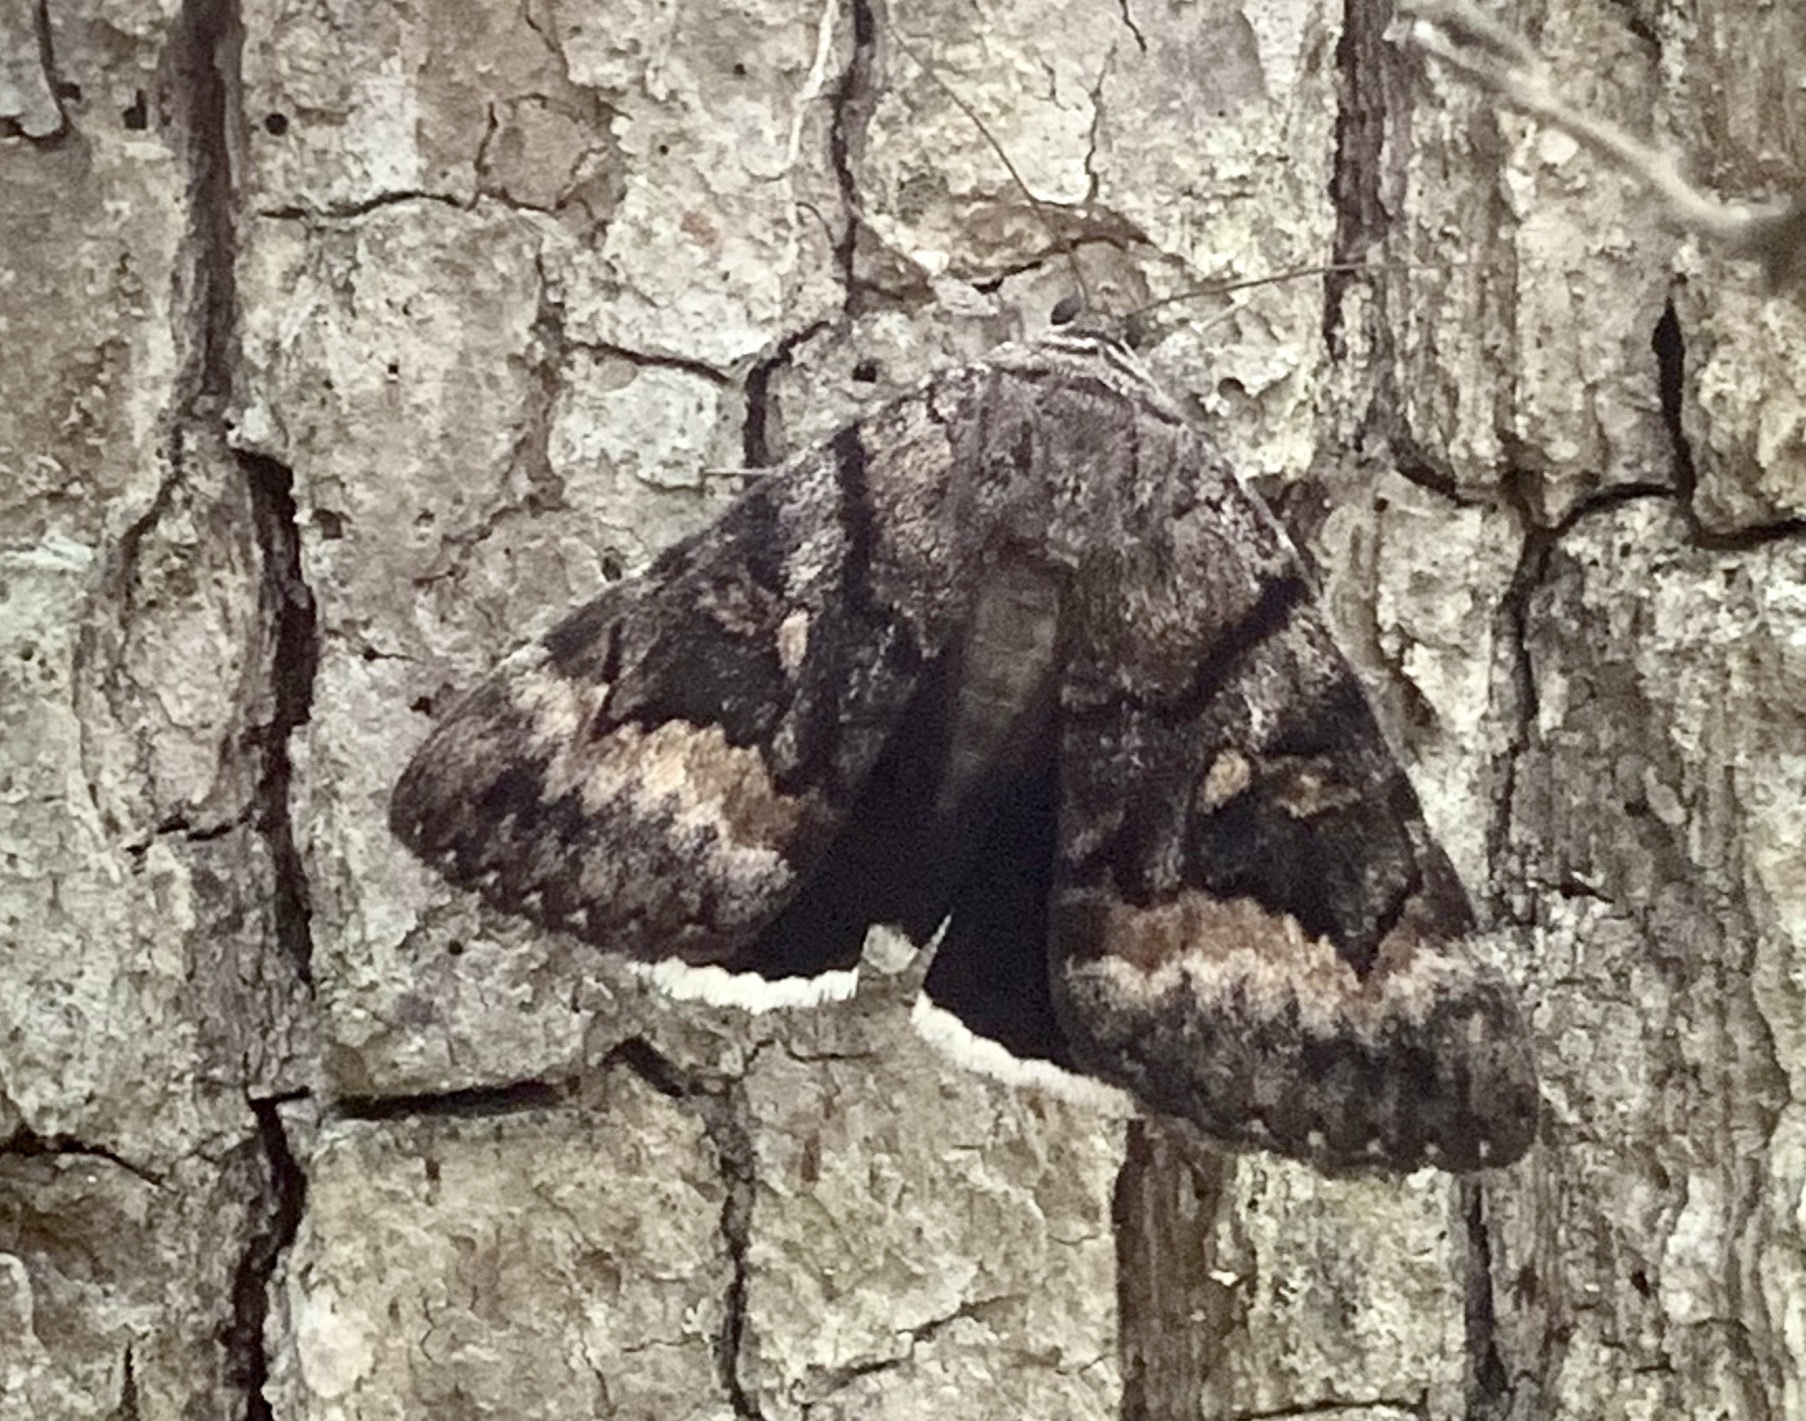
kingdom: Animalia
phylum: Arthropoda
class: Insecta
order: Lepidoptera
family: Erebidae
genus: Catocala
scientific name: Catocala epione
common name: Epione underwing
